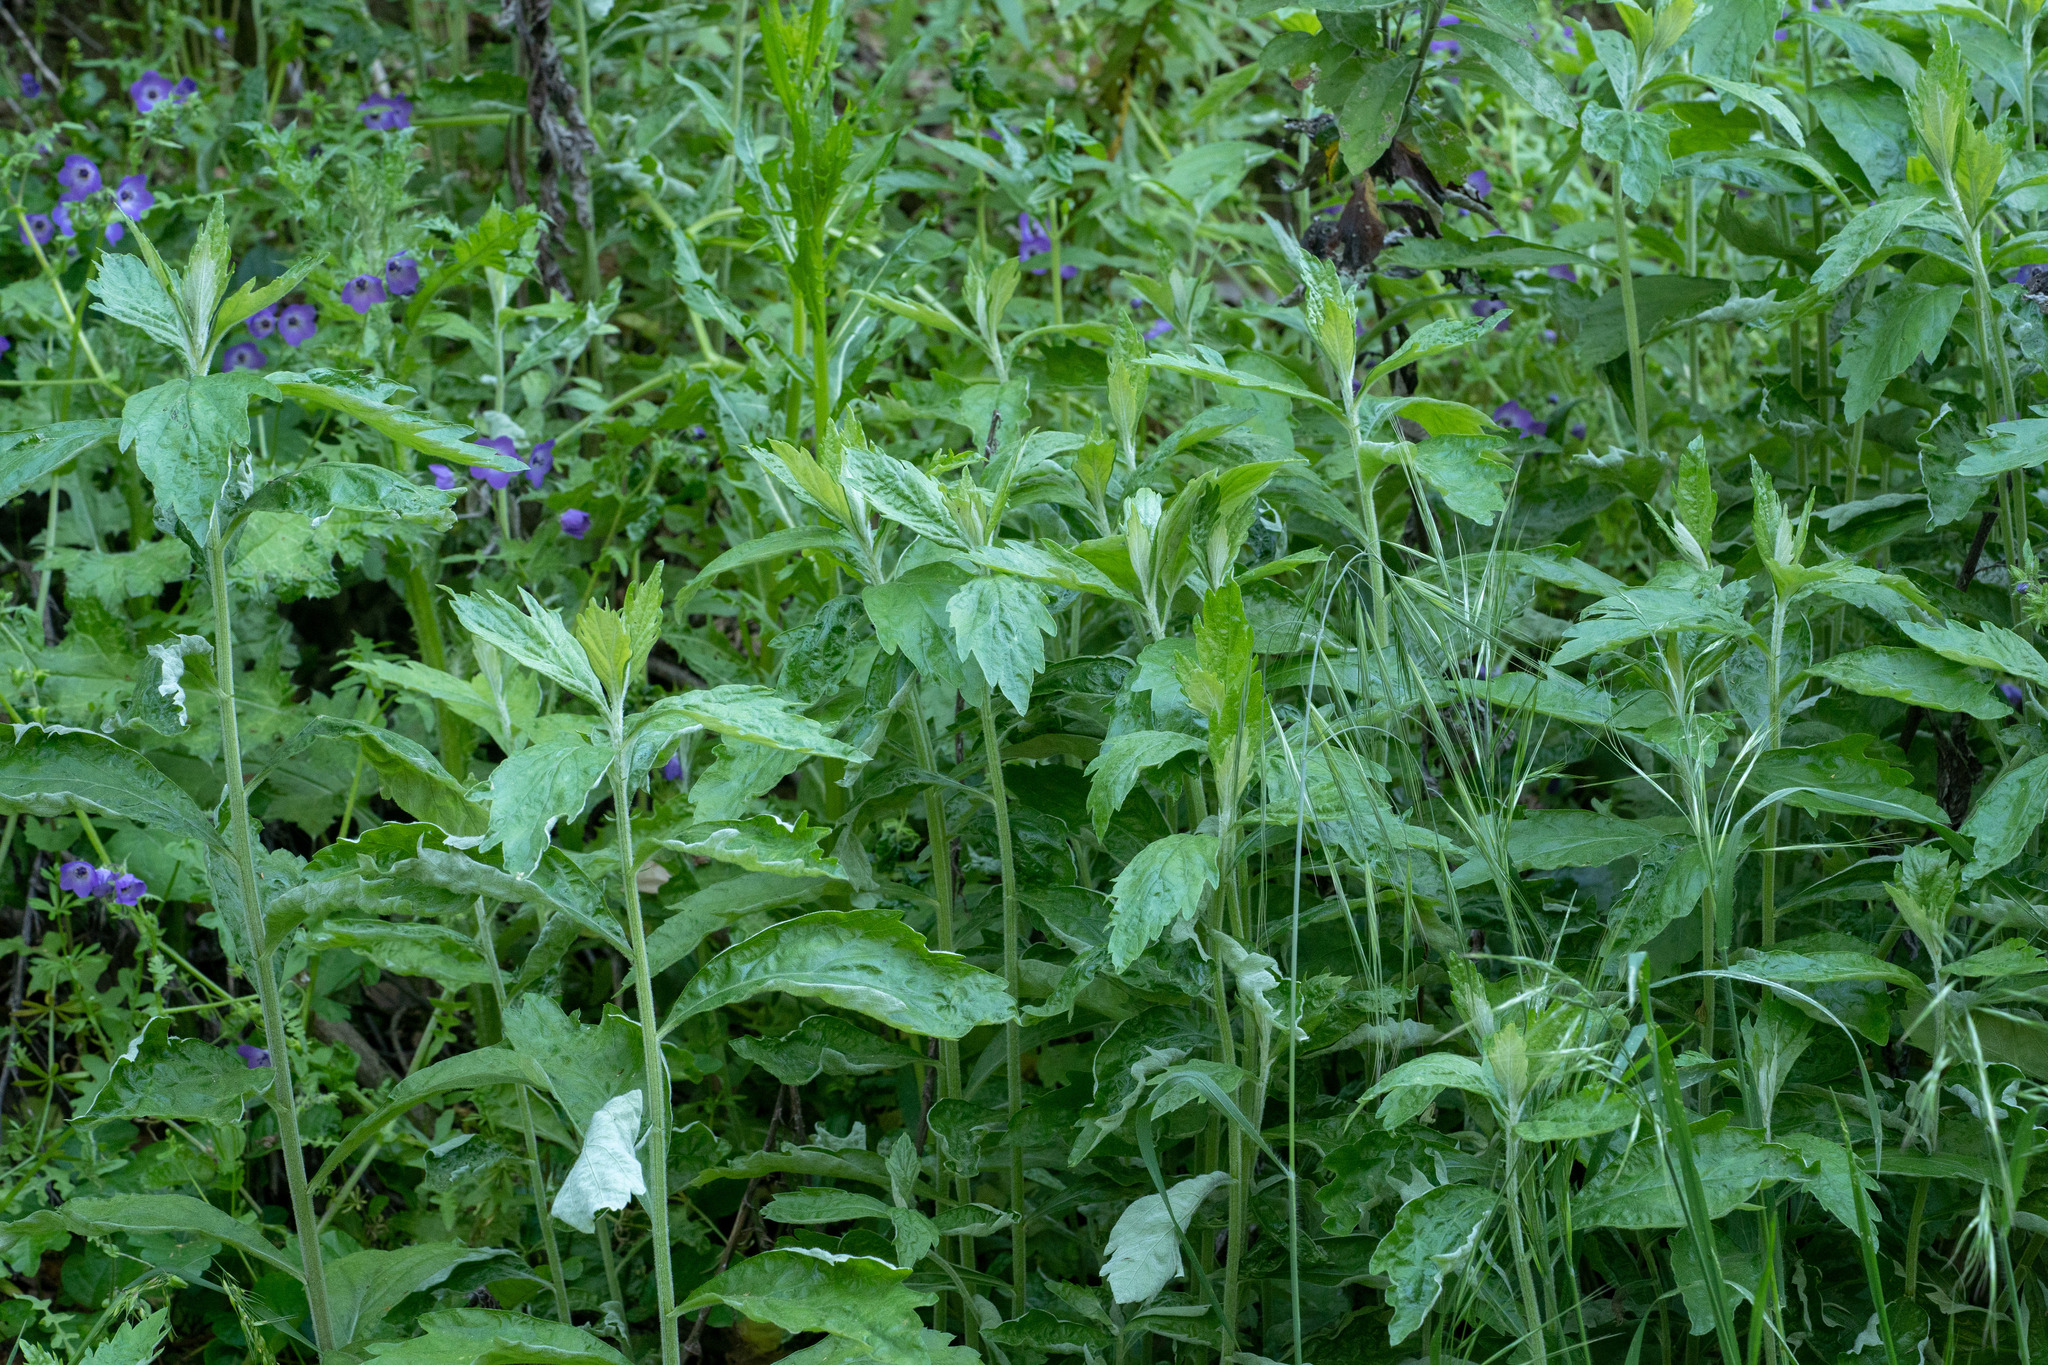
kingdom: Plantae
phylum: Tracheophyta
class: Magnoliopsida
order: Asterales
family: Asteraceae
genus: Artemisia
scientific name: Artemisia douglasiana
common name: Northwest mugwort
